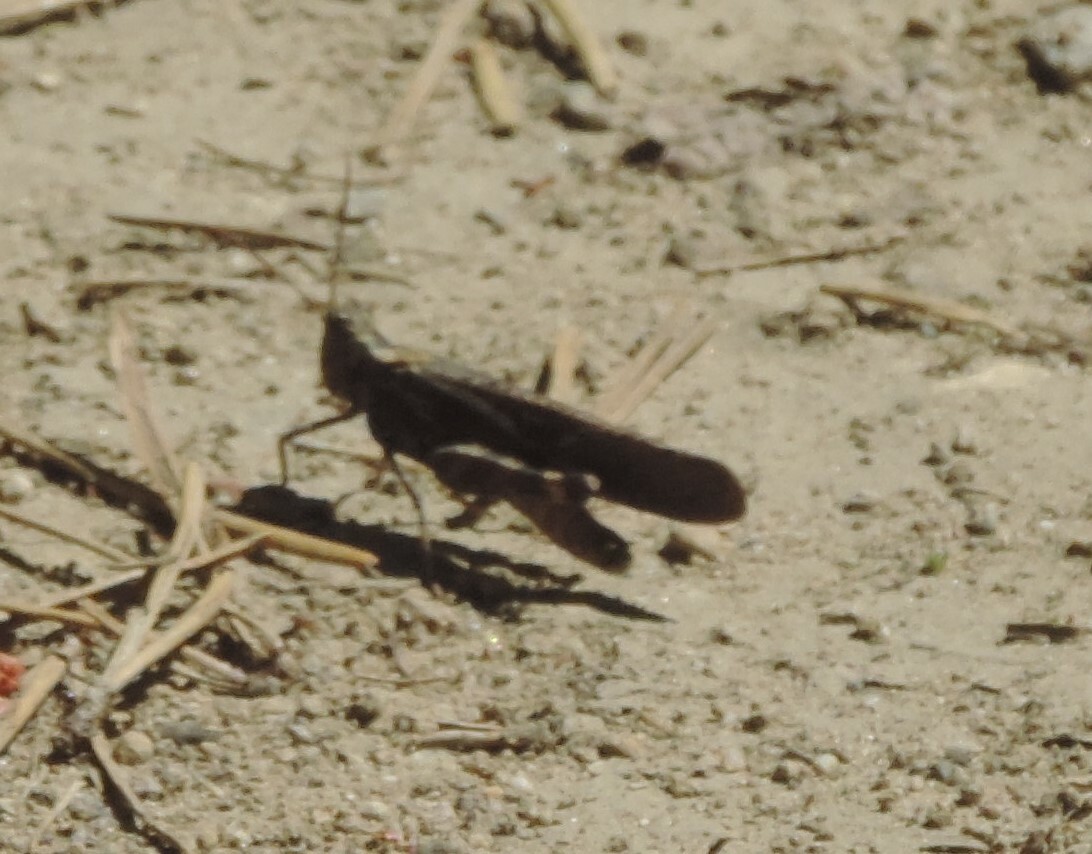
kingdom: Animalia
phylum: Arthropoda
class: Insecta
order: Orthoptera
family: Acrididae
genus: Trimerotropis
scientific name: Trimerotropis verruculata
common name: Crackling forest grasshopper
